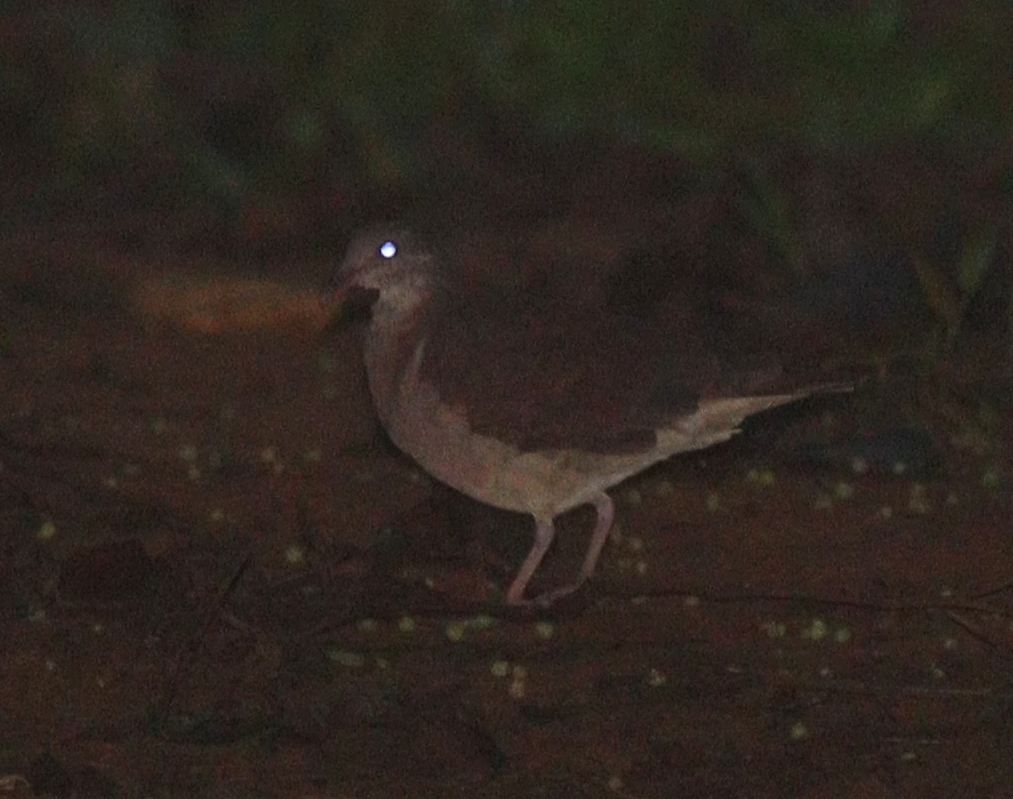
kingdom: Animalia
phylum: Chordata
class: Aves
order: Columbiformes
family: Columbidae
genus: Geotrygon
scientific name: Geotrygon montana
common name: Ruddy quail-dove
